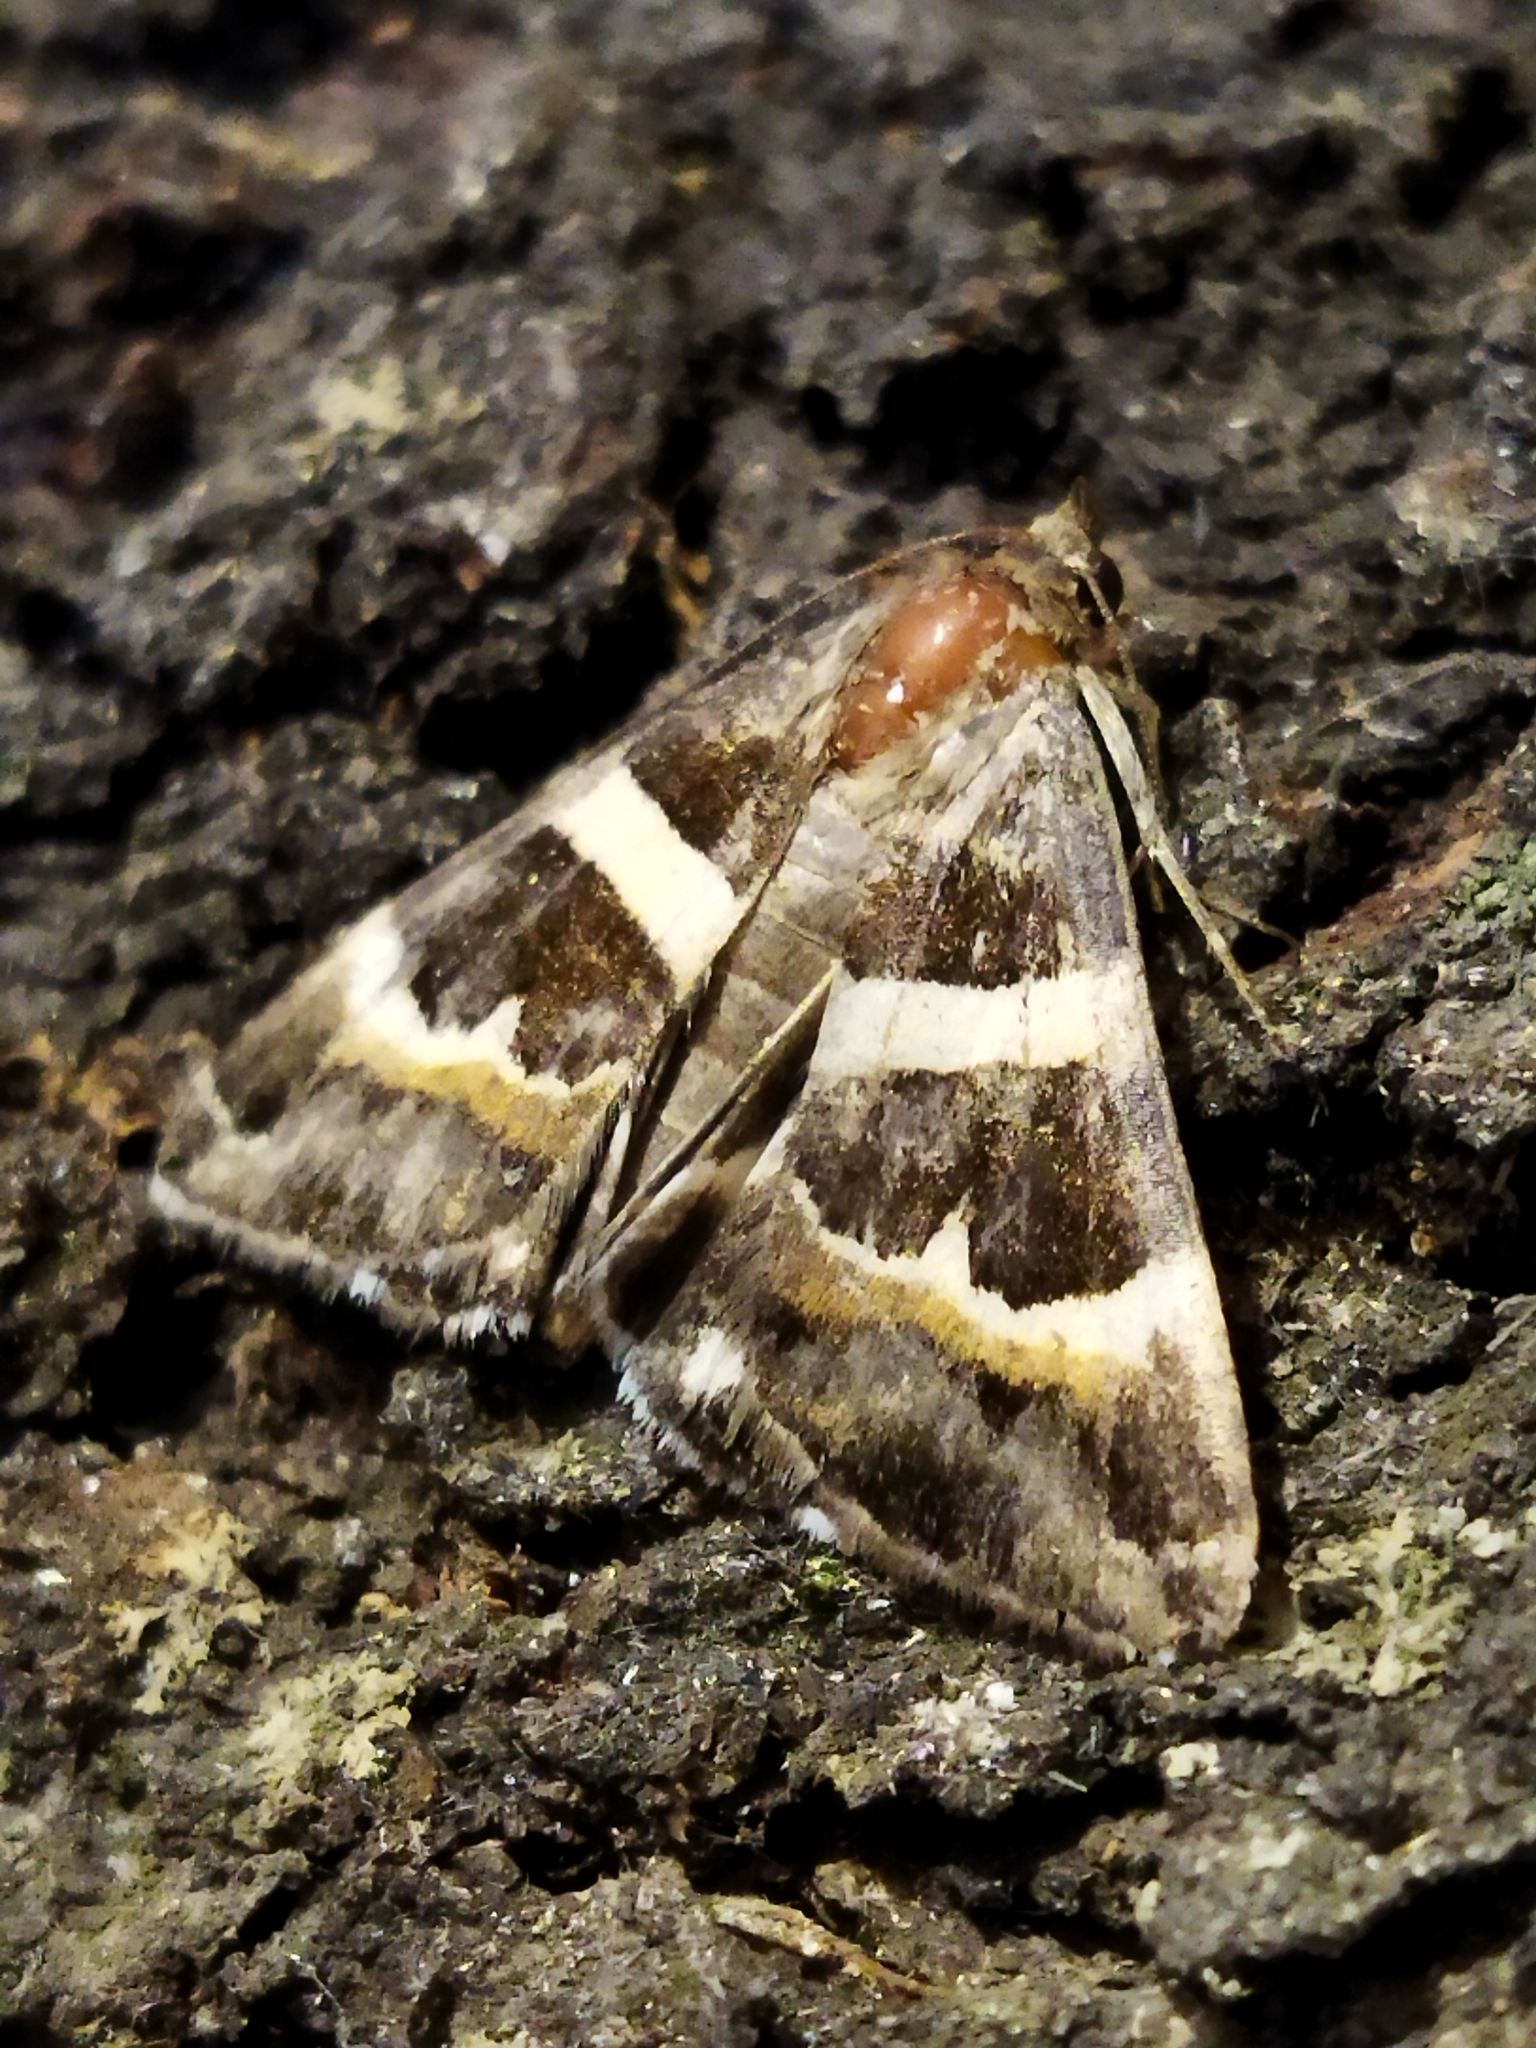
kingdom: Animalia
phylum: Arthropoda
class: Insecta
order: Lepidoptera
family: Erebidae
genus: Grammodes
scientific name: Grammodes stolida
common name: Geometrician
